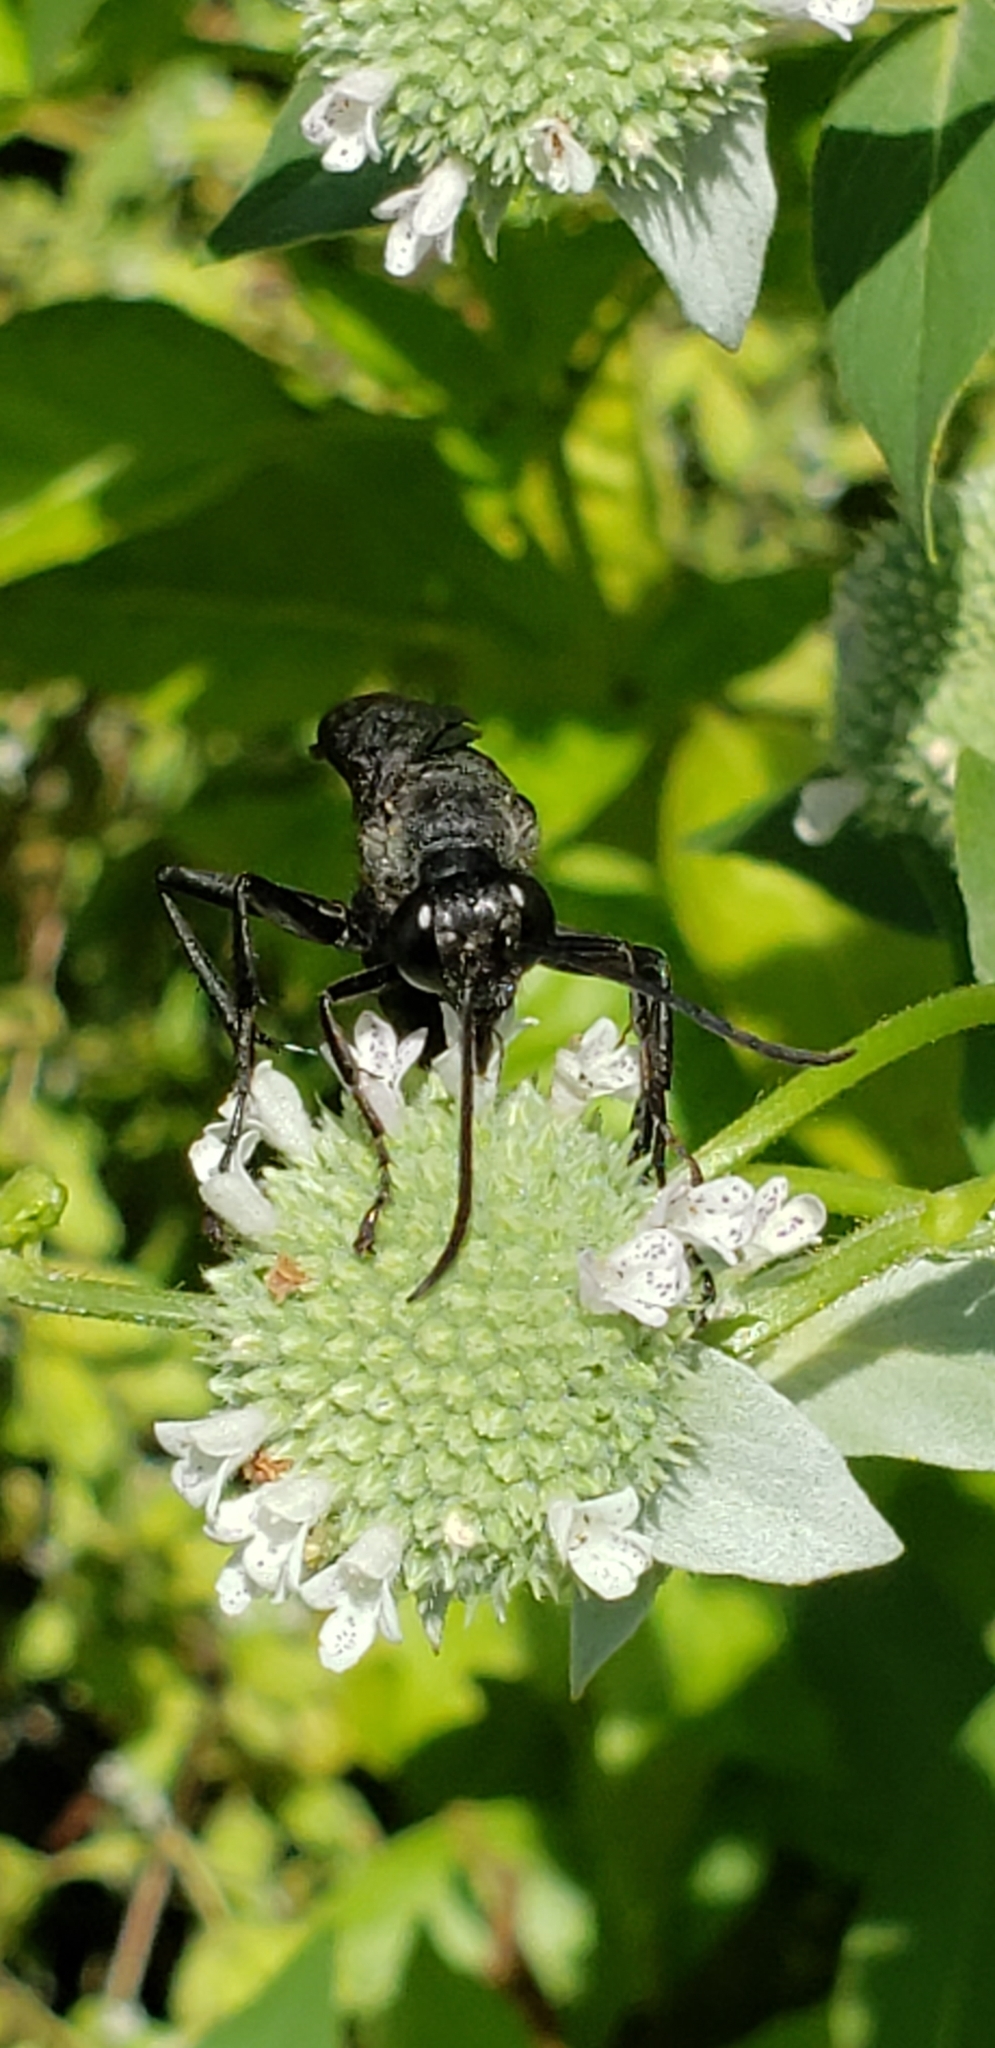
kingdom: Animalia
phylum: Arthropoda
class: Insecta
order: Hymenoptera
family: Sphecidae
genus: Sphex
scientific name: Sphex pensylvanicus
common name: Great black digger wasp
